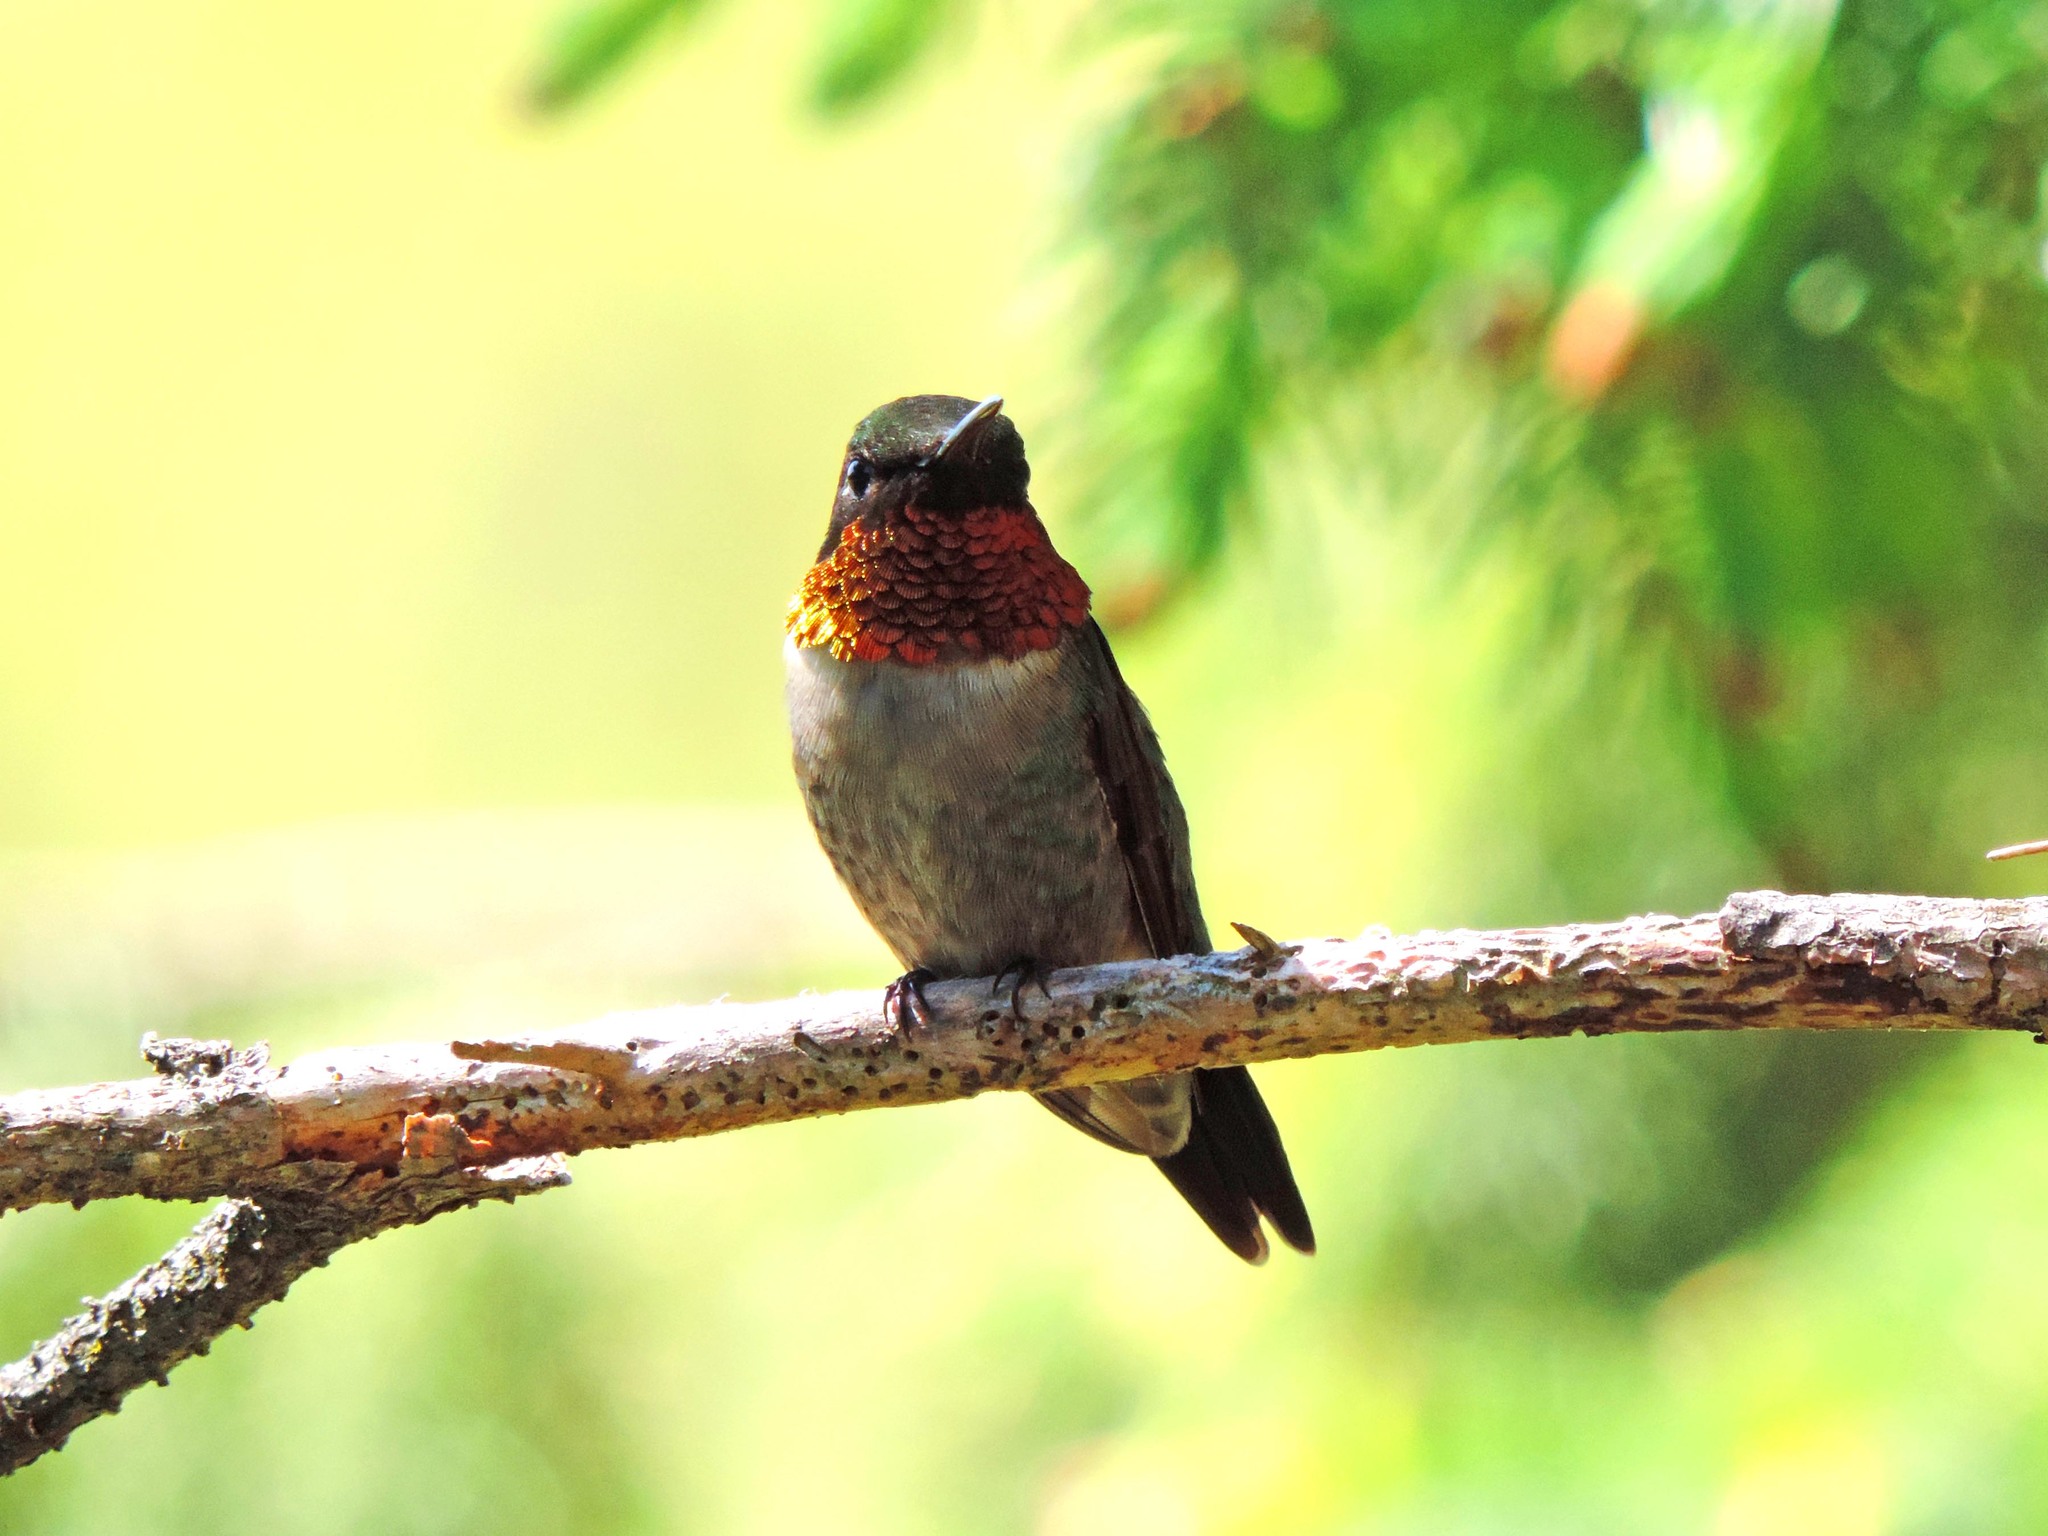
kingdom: Animalia
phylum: Chordata
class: Aves
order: Apodiformes
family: Trochilidae
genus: Archilochus
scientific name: Archilochus colubris
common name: Ruby-throated hummingbird
